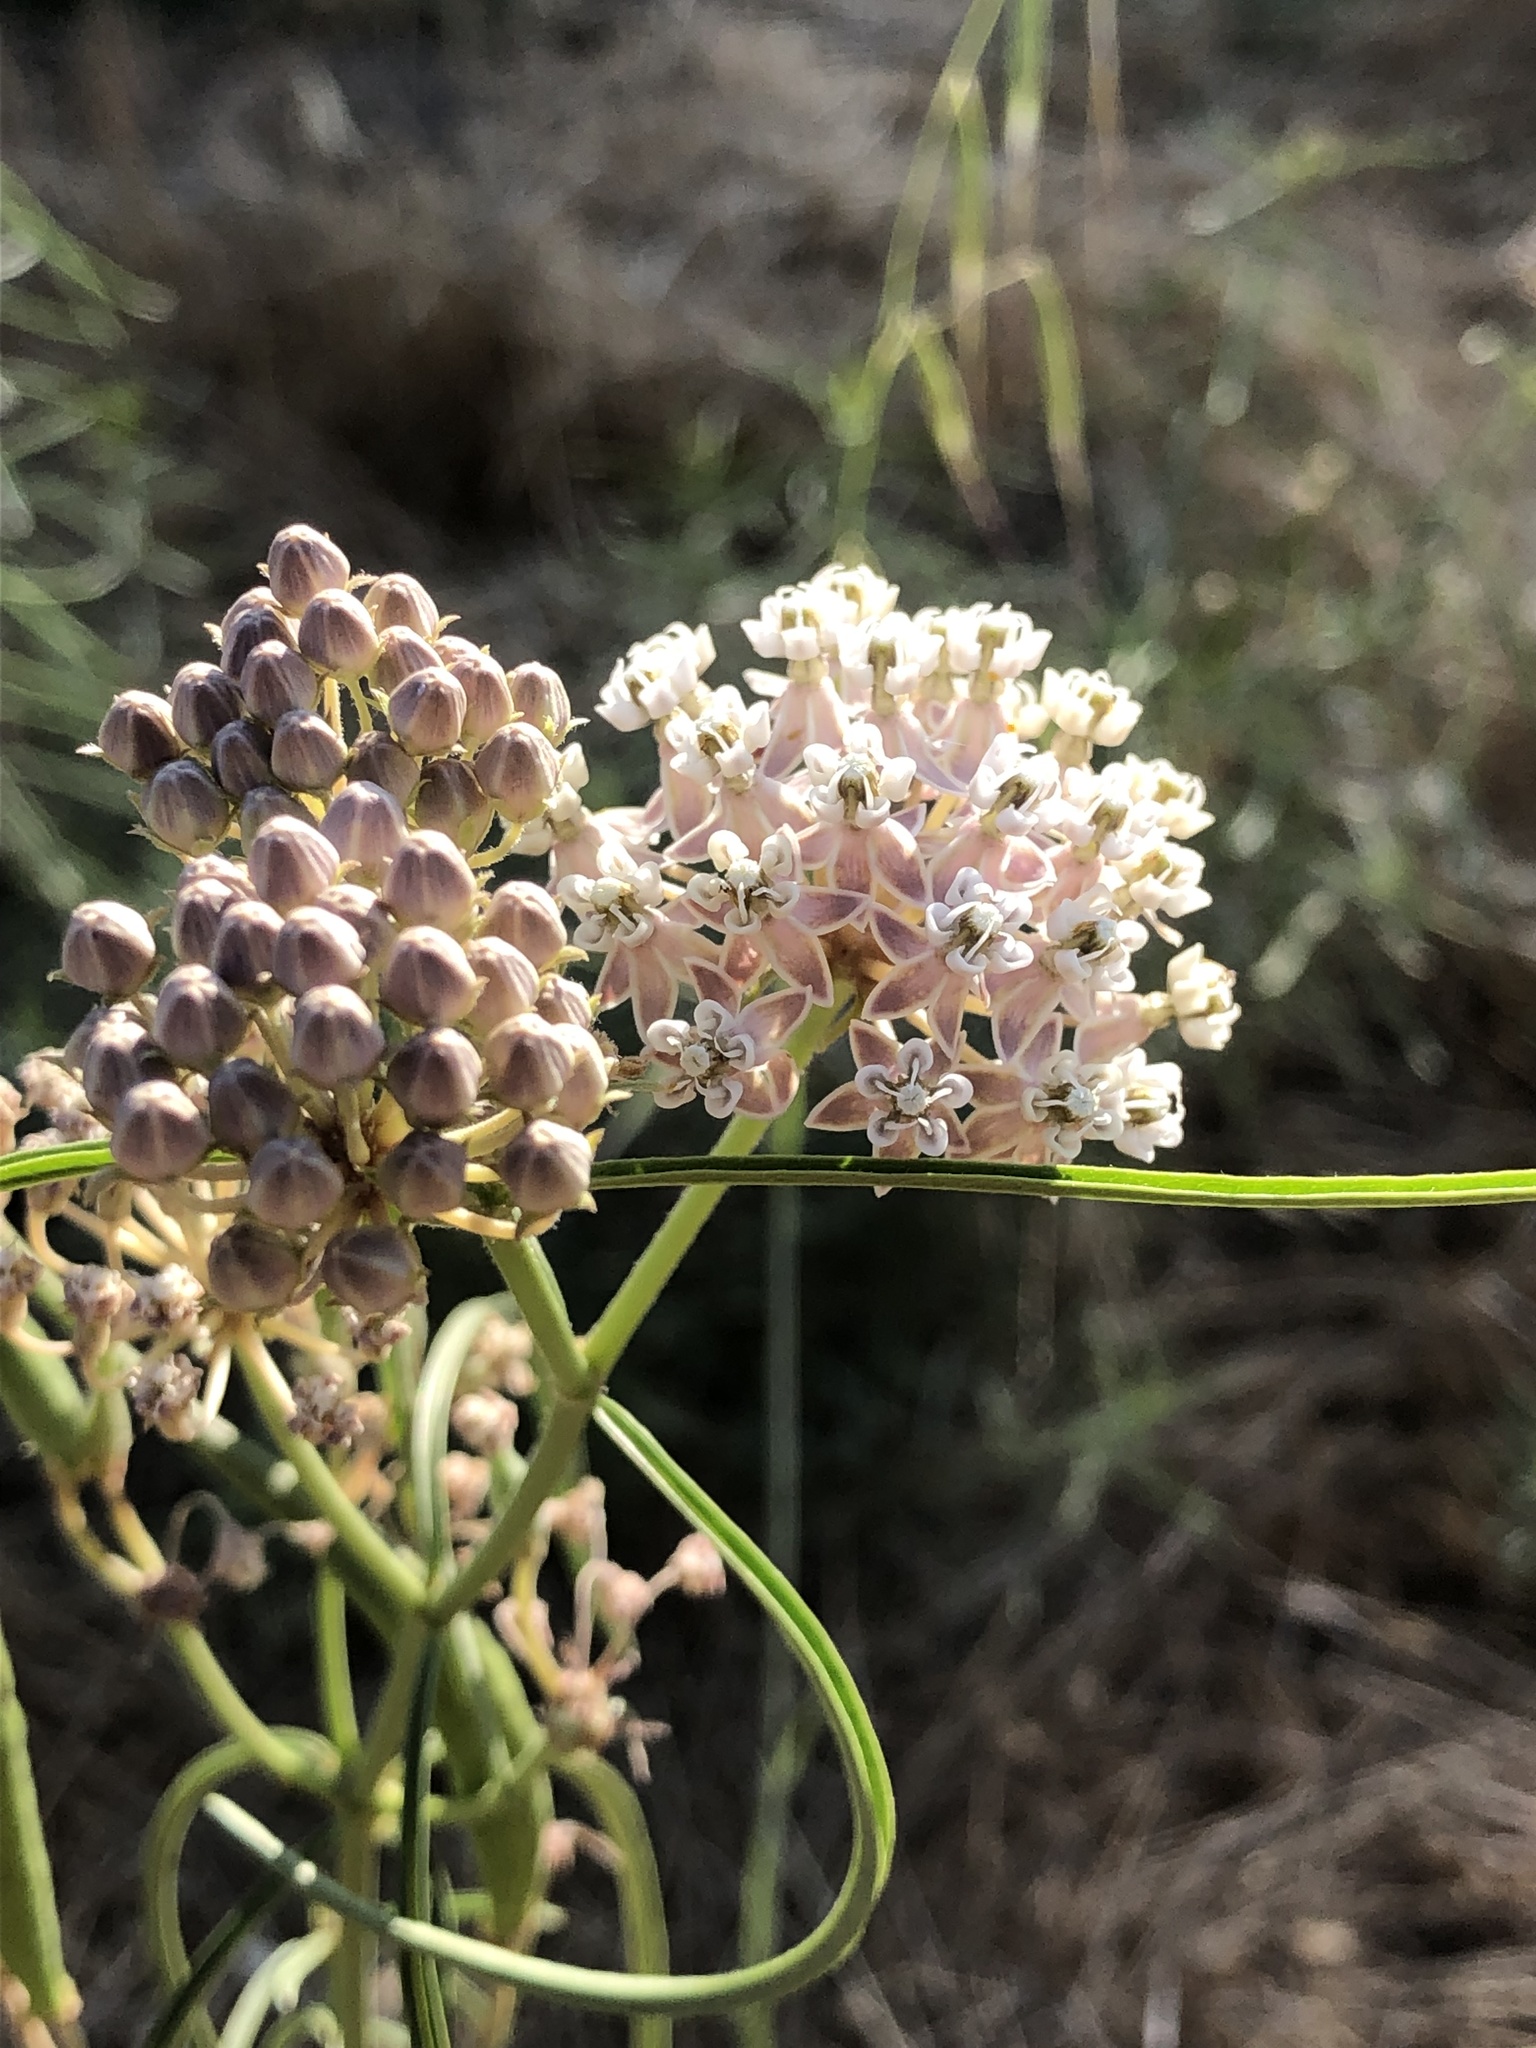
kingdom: Plantae
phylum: Tracheophyta
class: Magnoliopsida
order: Gentianales
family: Apocynaceae
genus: Asclepias
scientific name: Asclepias fascicularis
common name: Mexican milkweed
